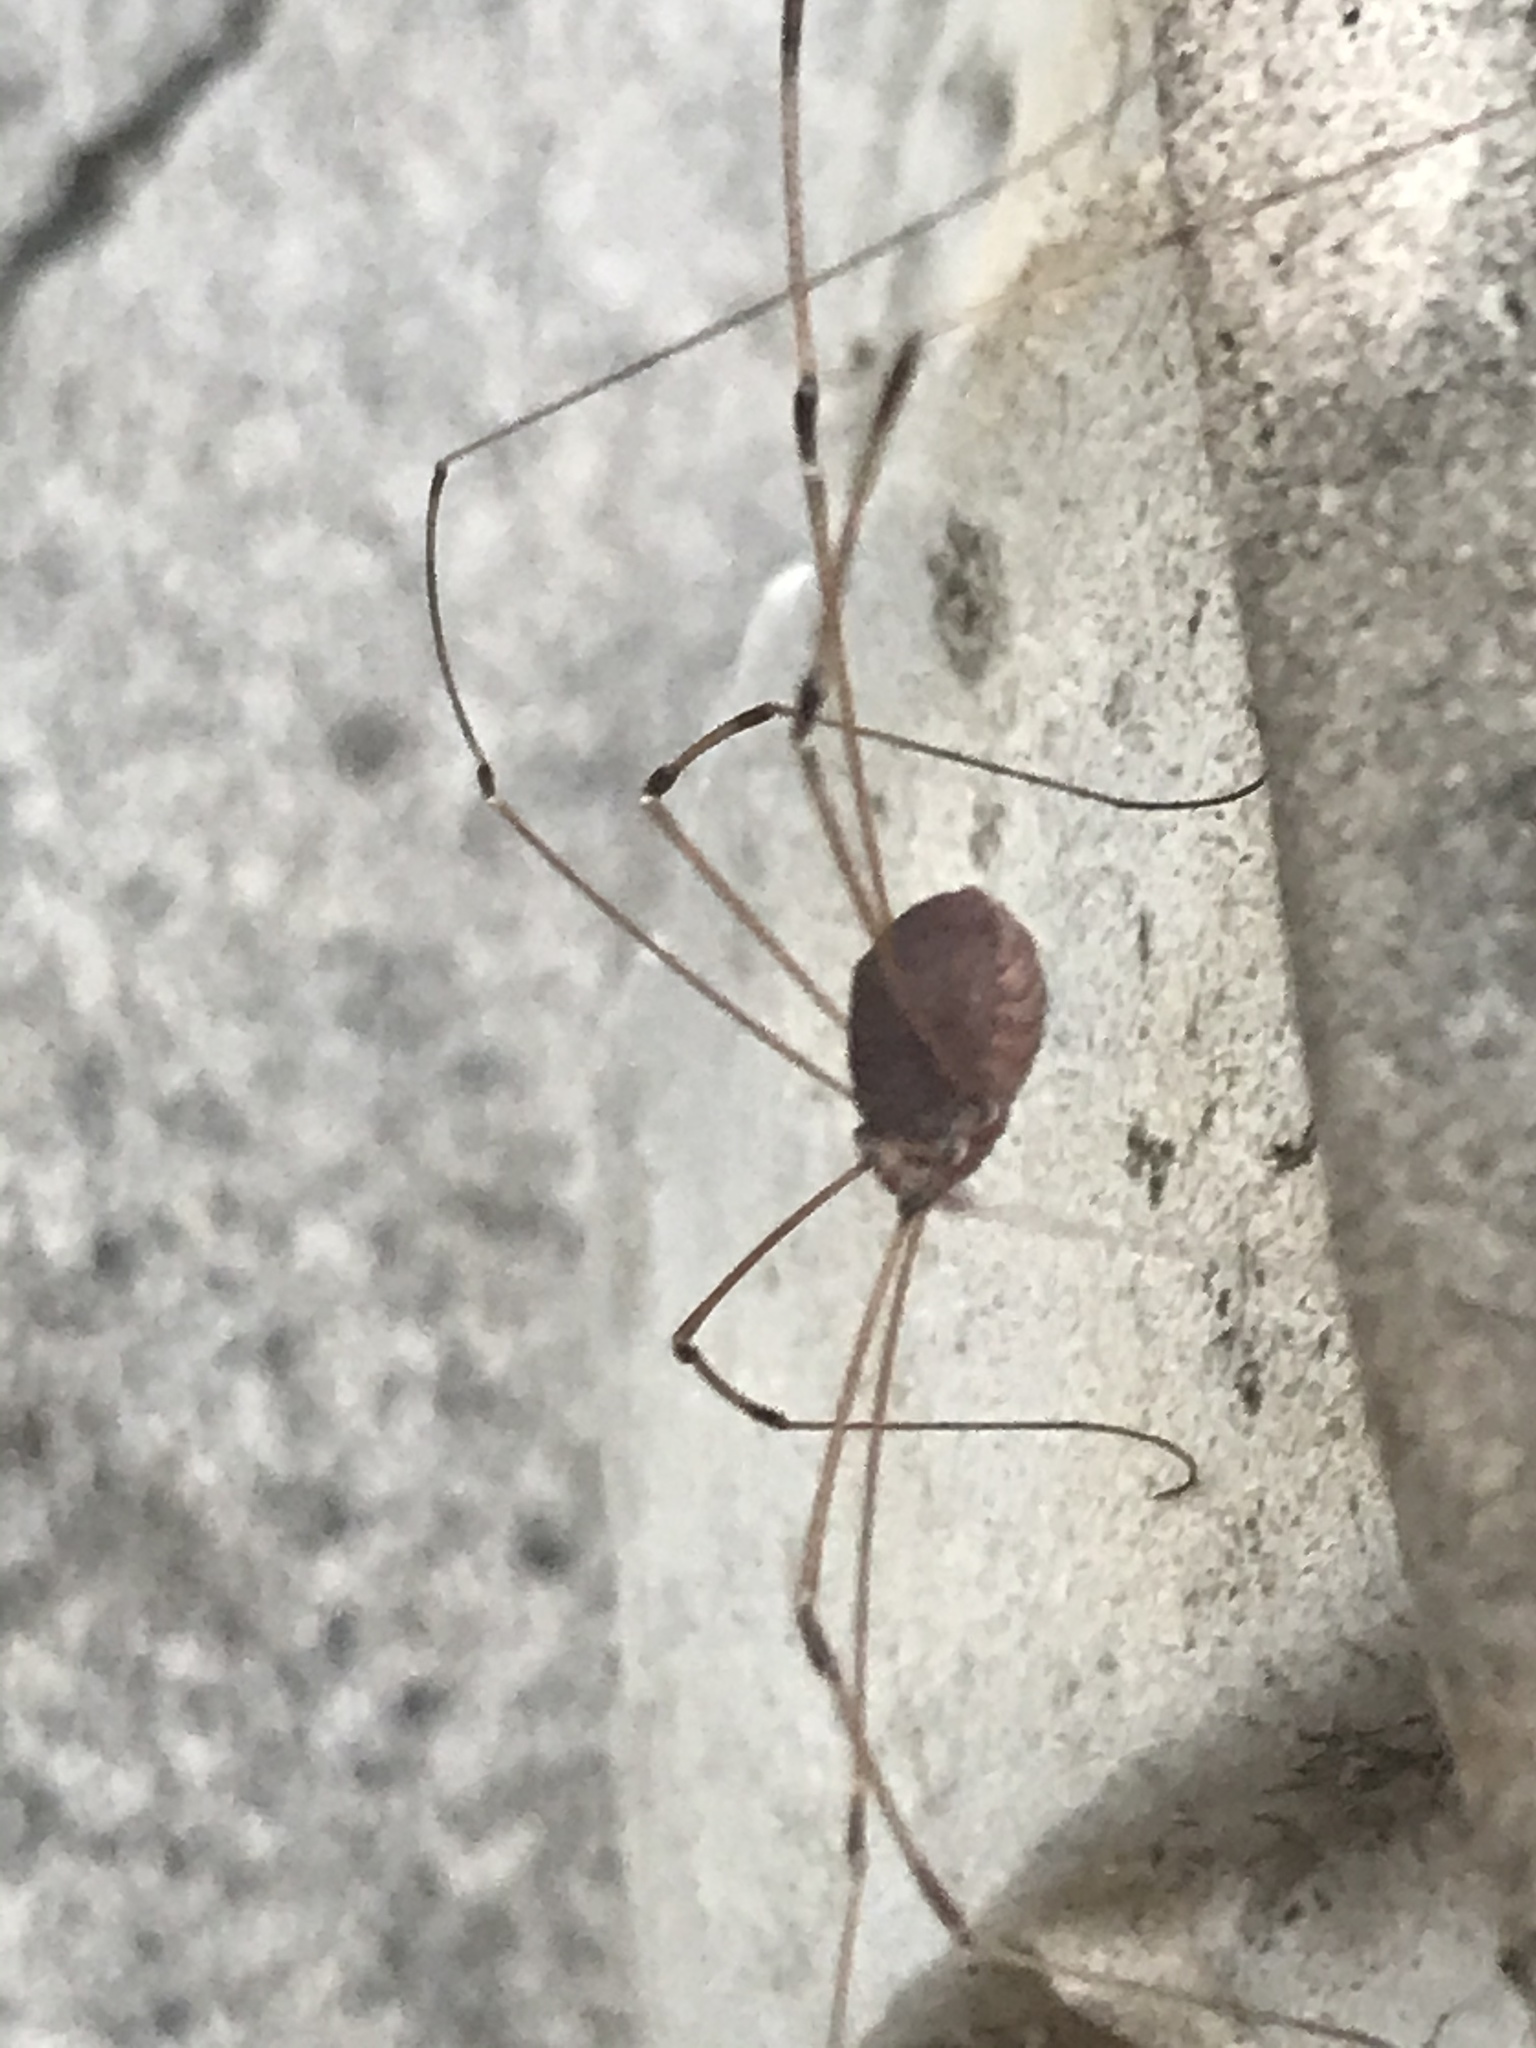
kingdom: Animalia
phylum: Arthropoda
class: Arachnida
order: Opiliones
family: Sclerosomatidae
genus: Leiobunum
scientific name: Leiobunum vittatum
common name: Eastern harvestman
